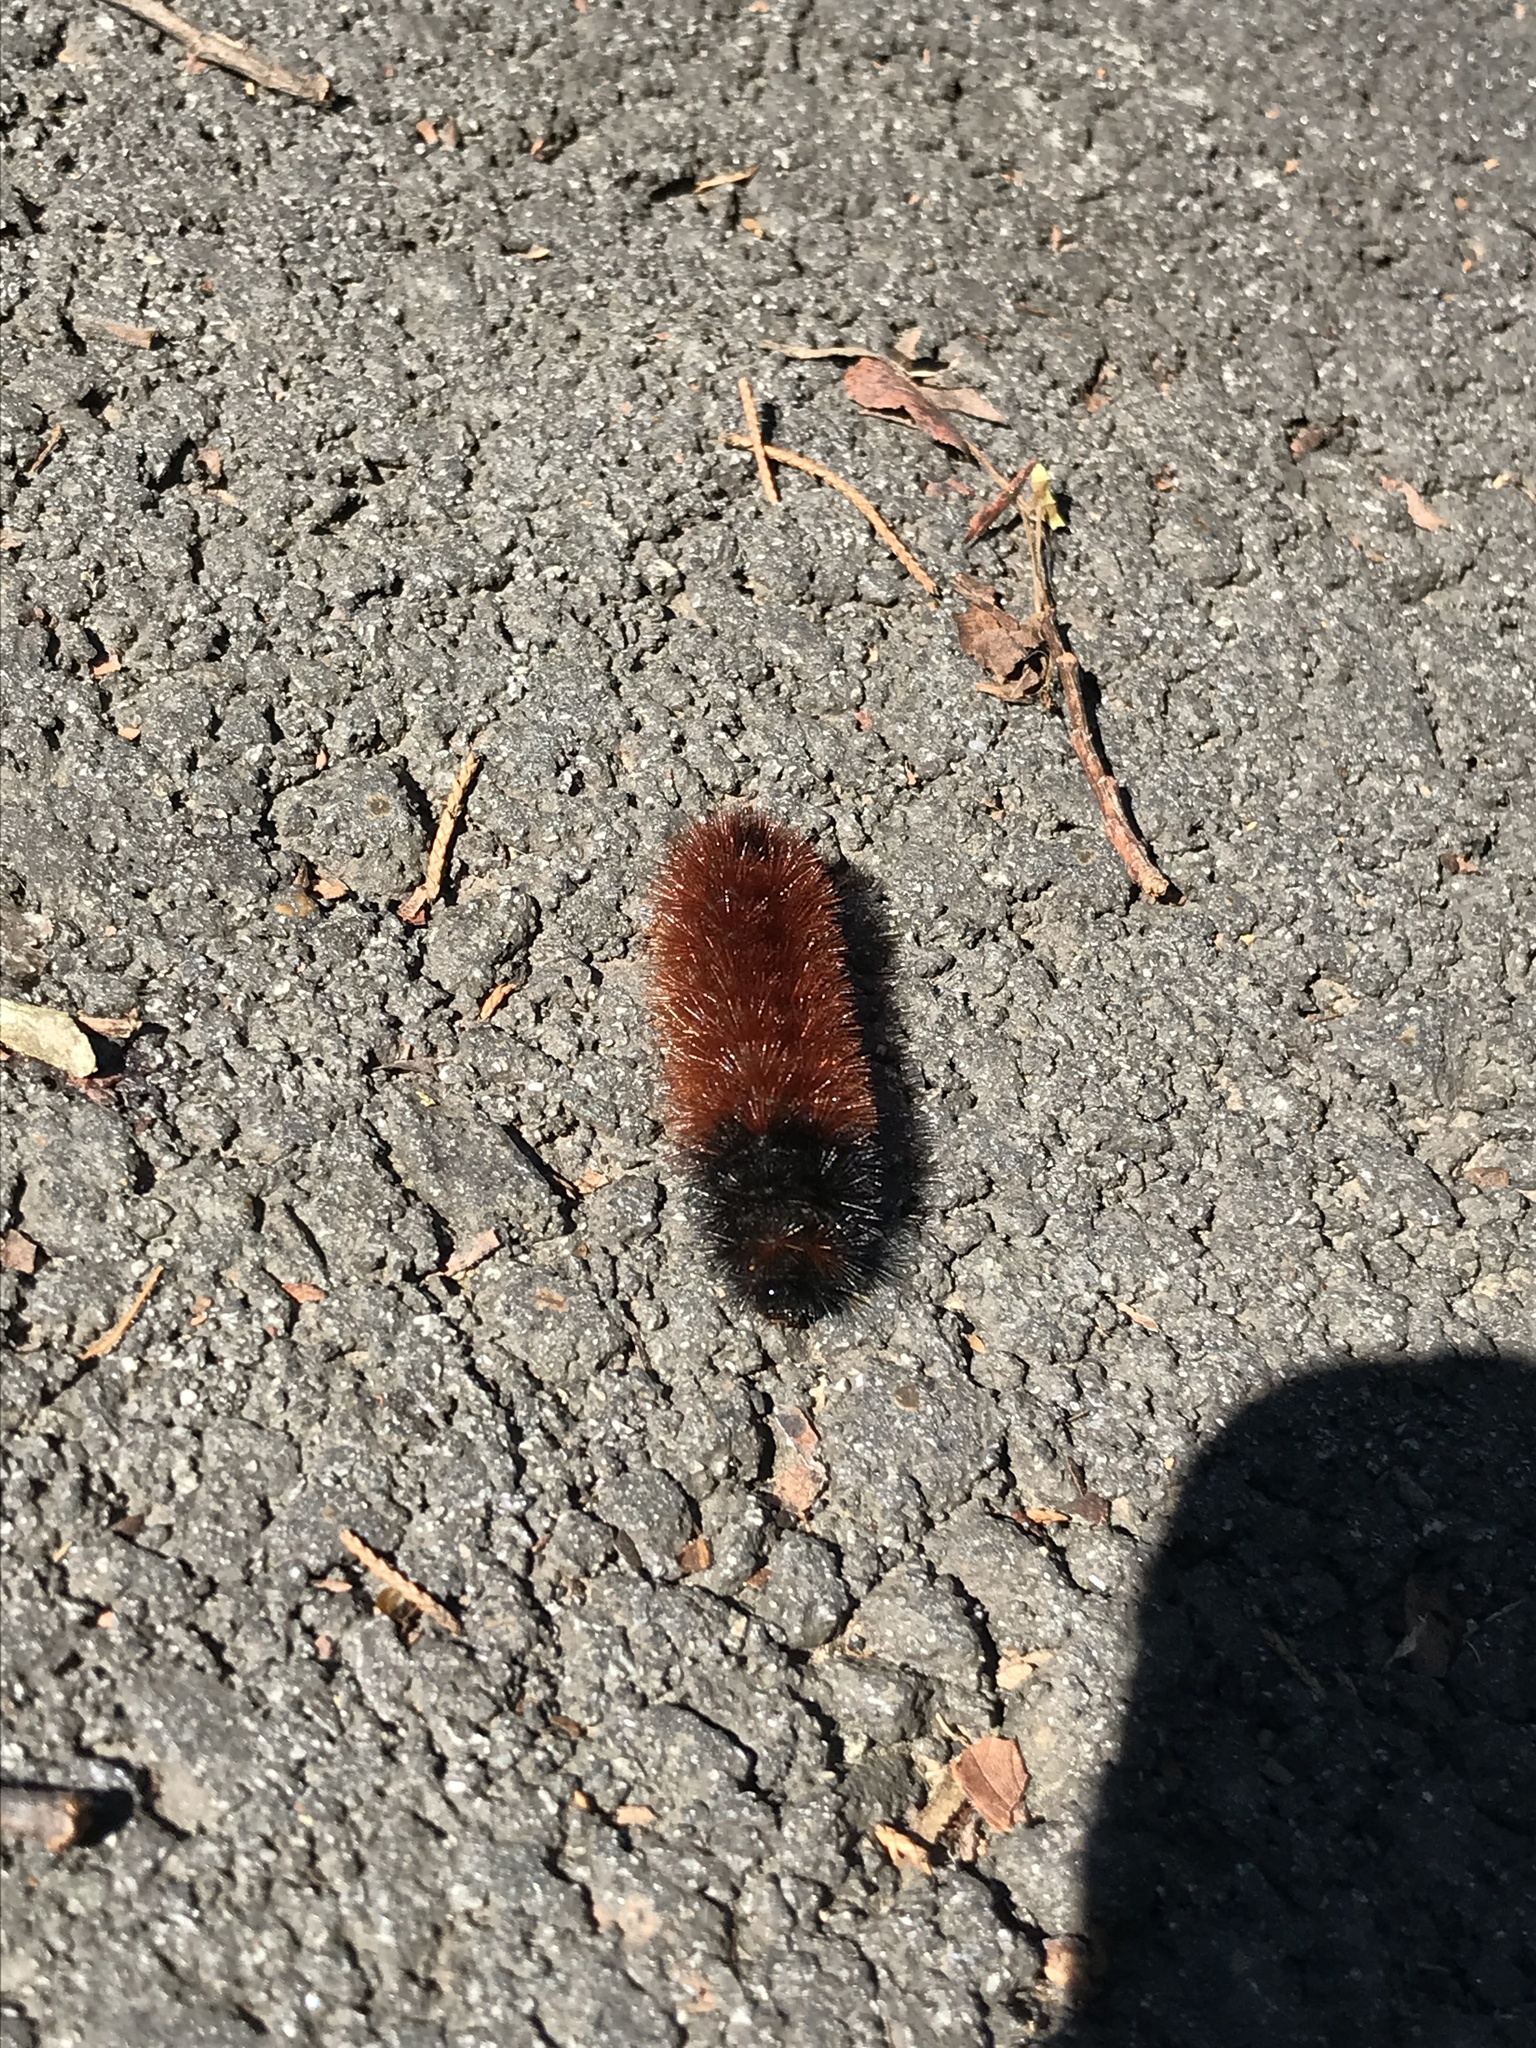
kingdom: Animalia
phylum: Arthropoda
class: Insecta
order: Lepidoptera
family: Erebidae
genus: Pyrrharctia
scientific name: Pyrrharctia isabella
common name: Isabella tiger moth
